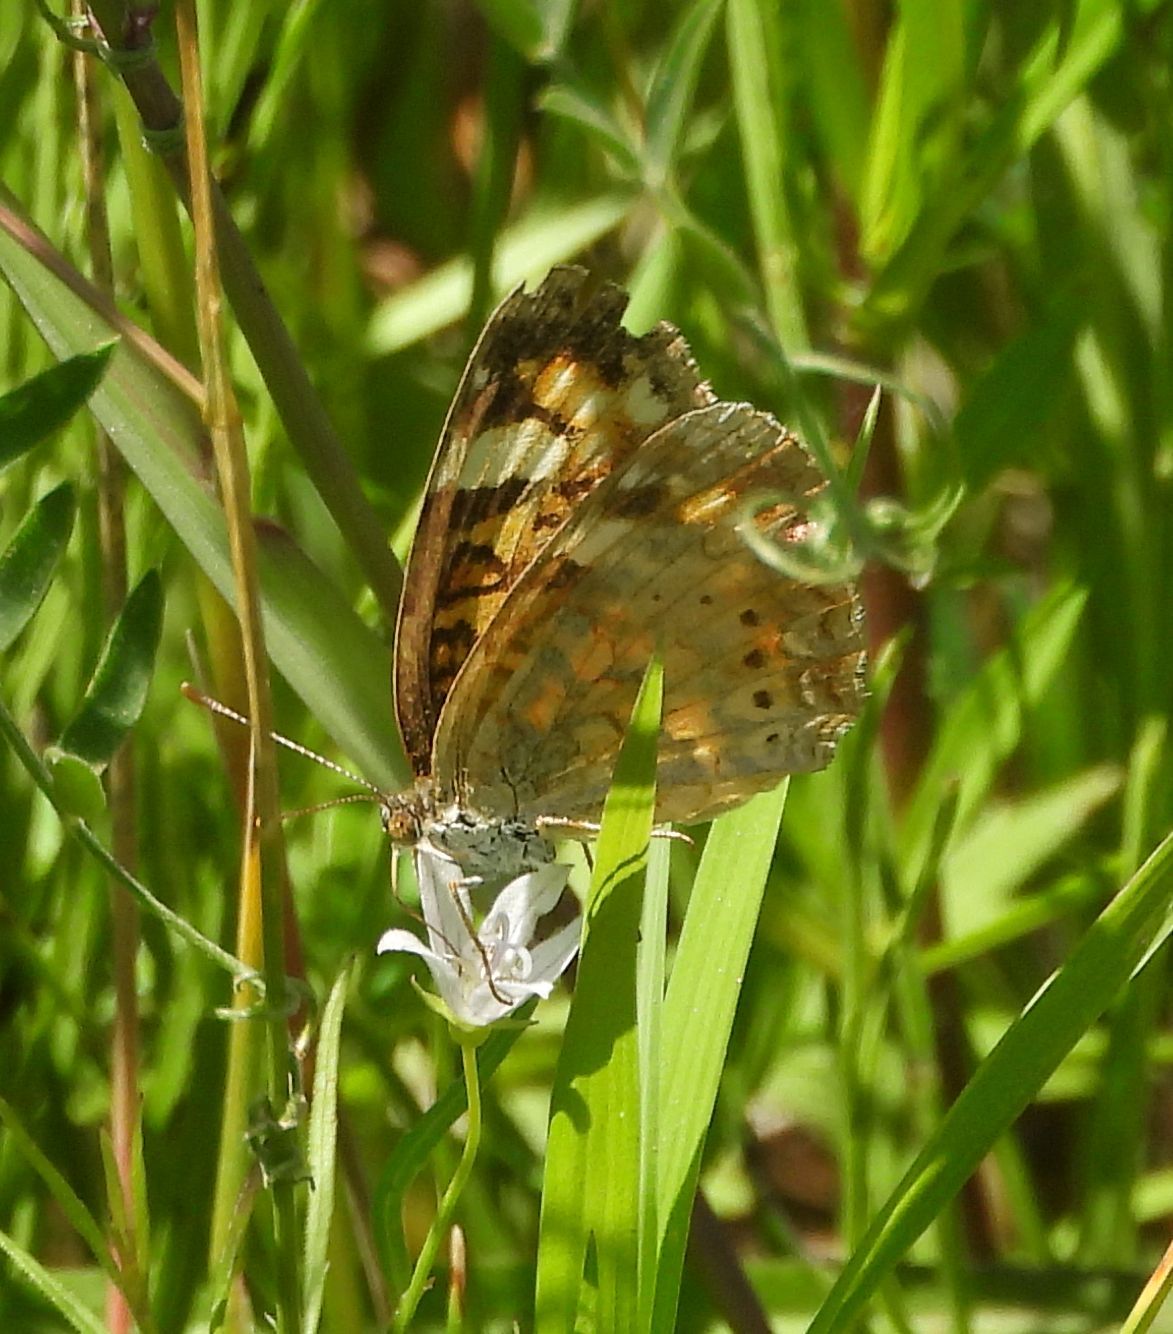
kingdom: Animalia
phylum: Arthropoda
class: Insecta
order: Lepidoptera
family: Nymphalidae
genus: Phyciodes
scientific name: Phyciodes tharos
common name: Pearl crescent
